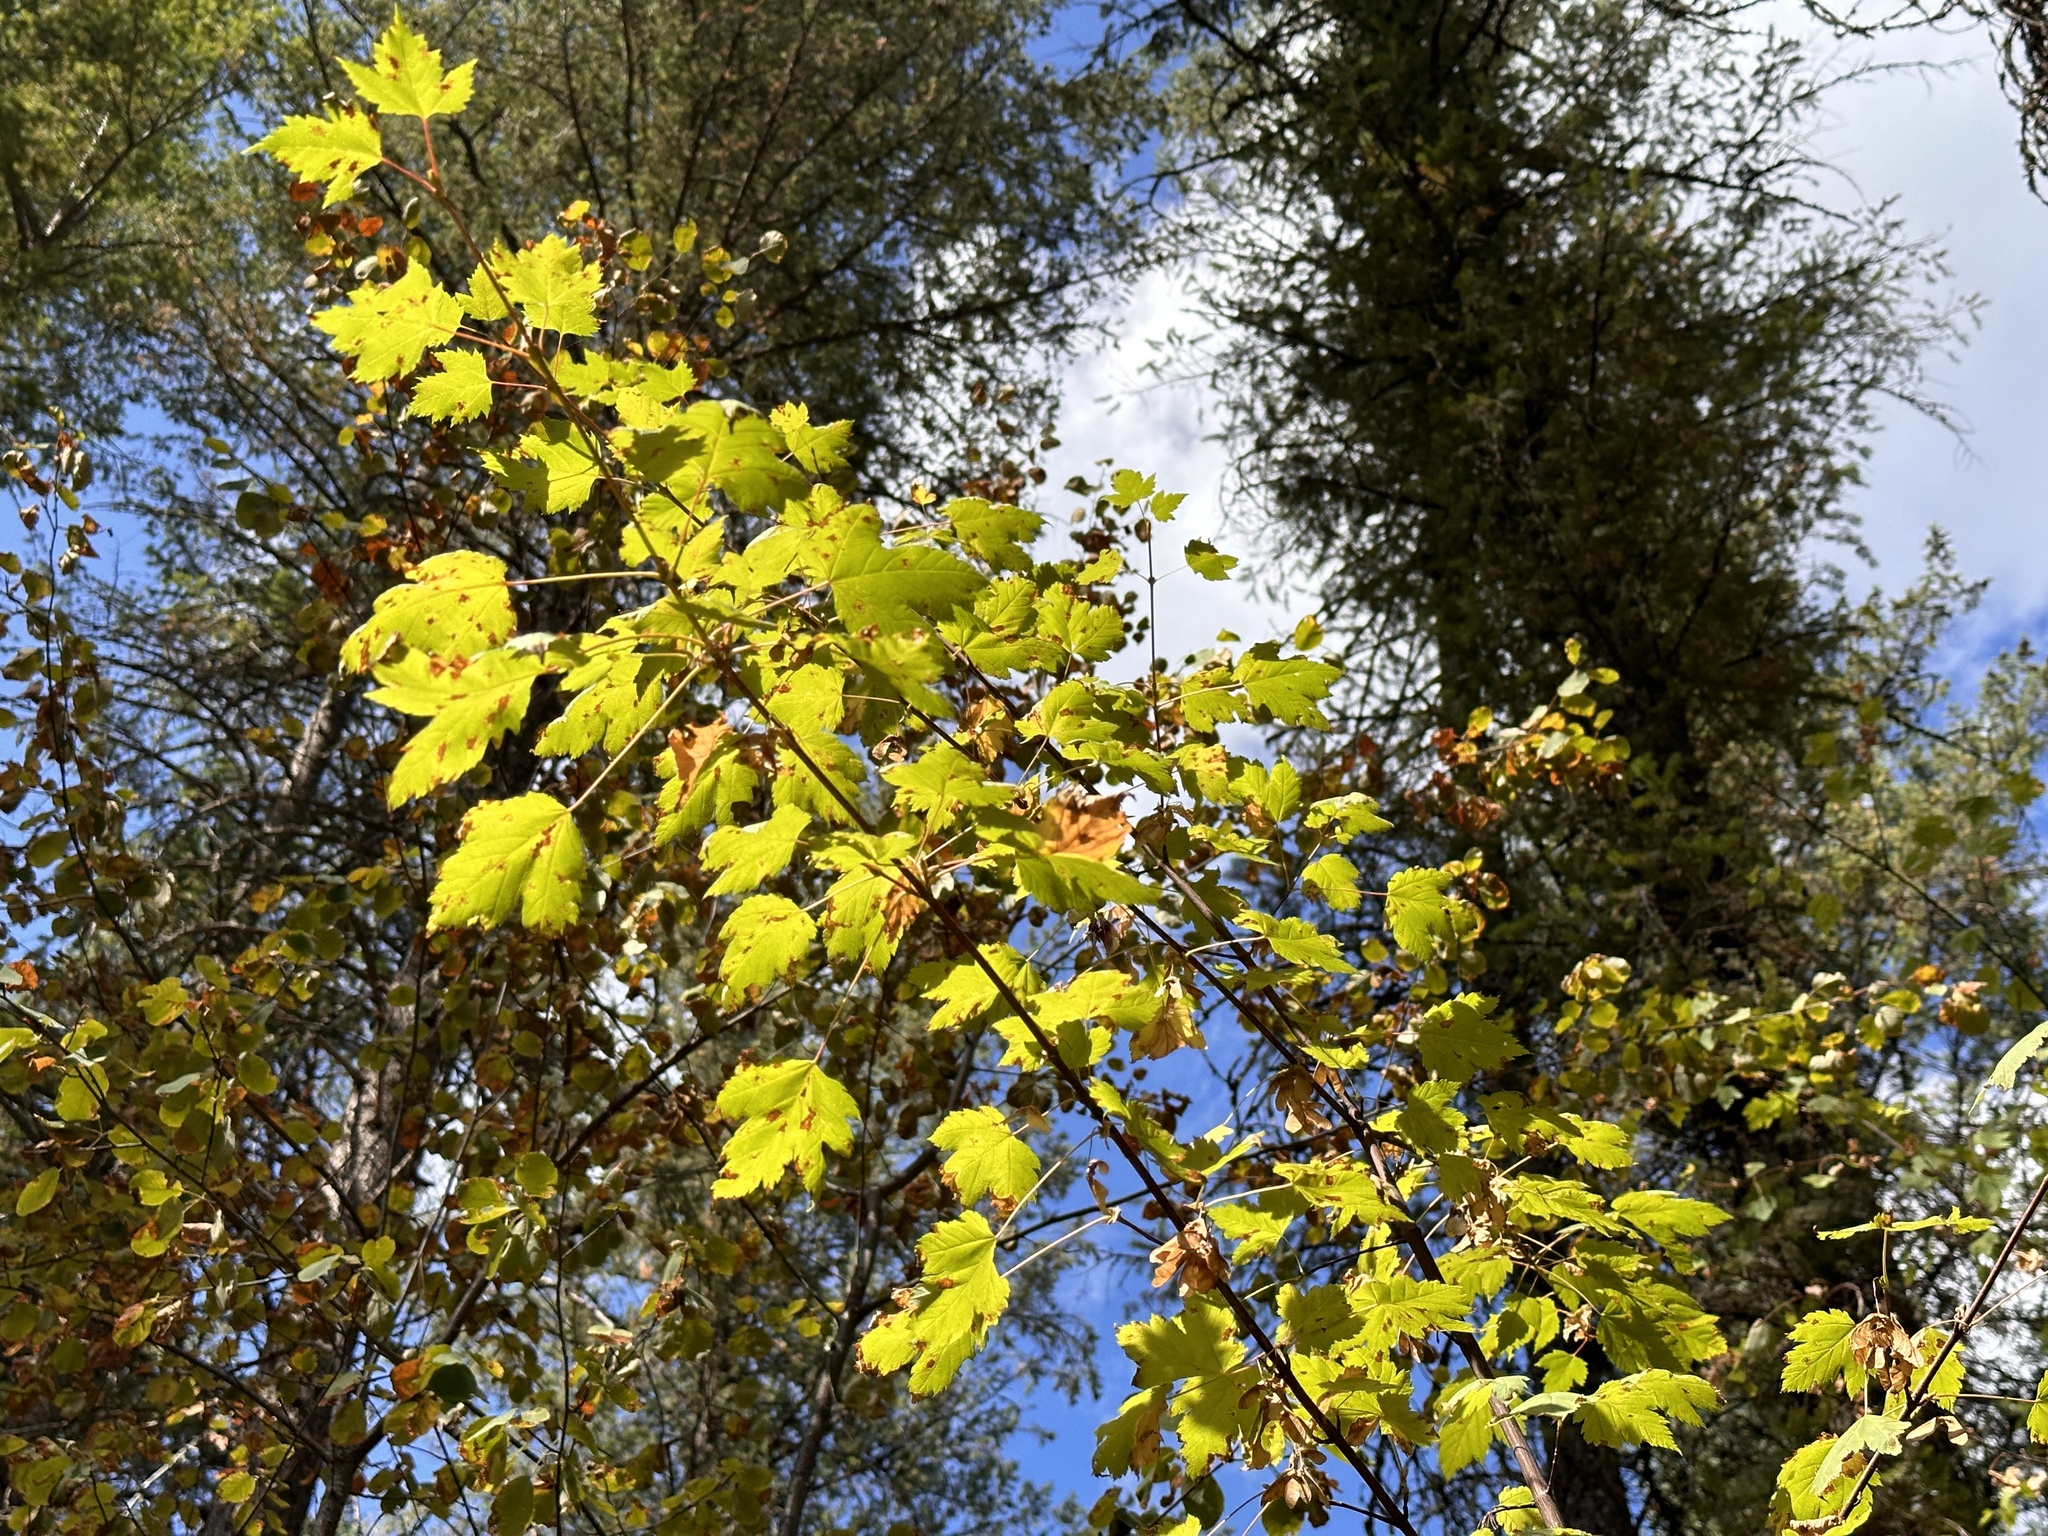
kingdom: Plantae
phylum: Tracheophyta
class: Magnoliopsida
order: Sapindales
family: Sapindaceae
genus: Acer
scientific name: Acer glabrum
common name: Rocky mountain maple
